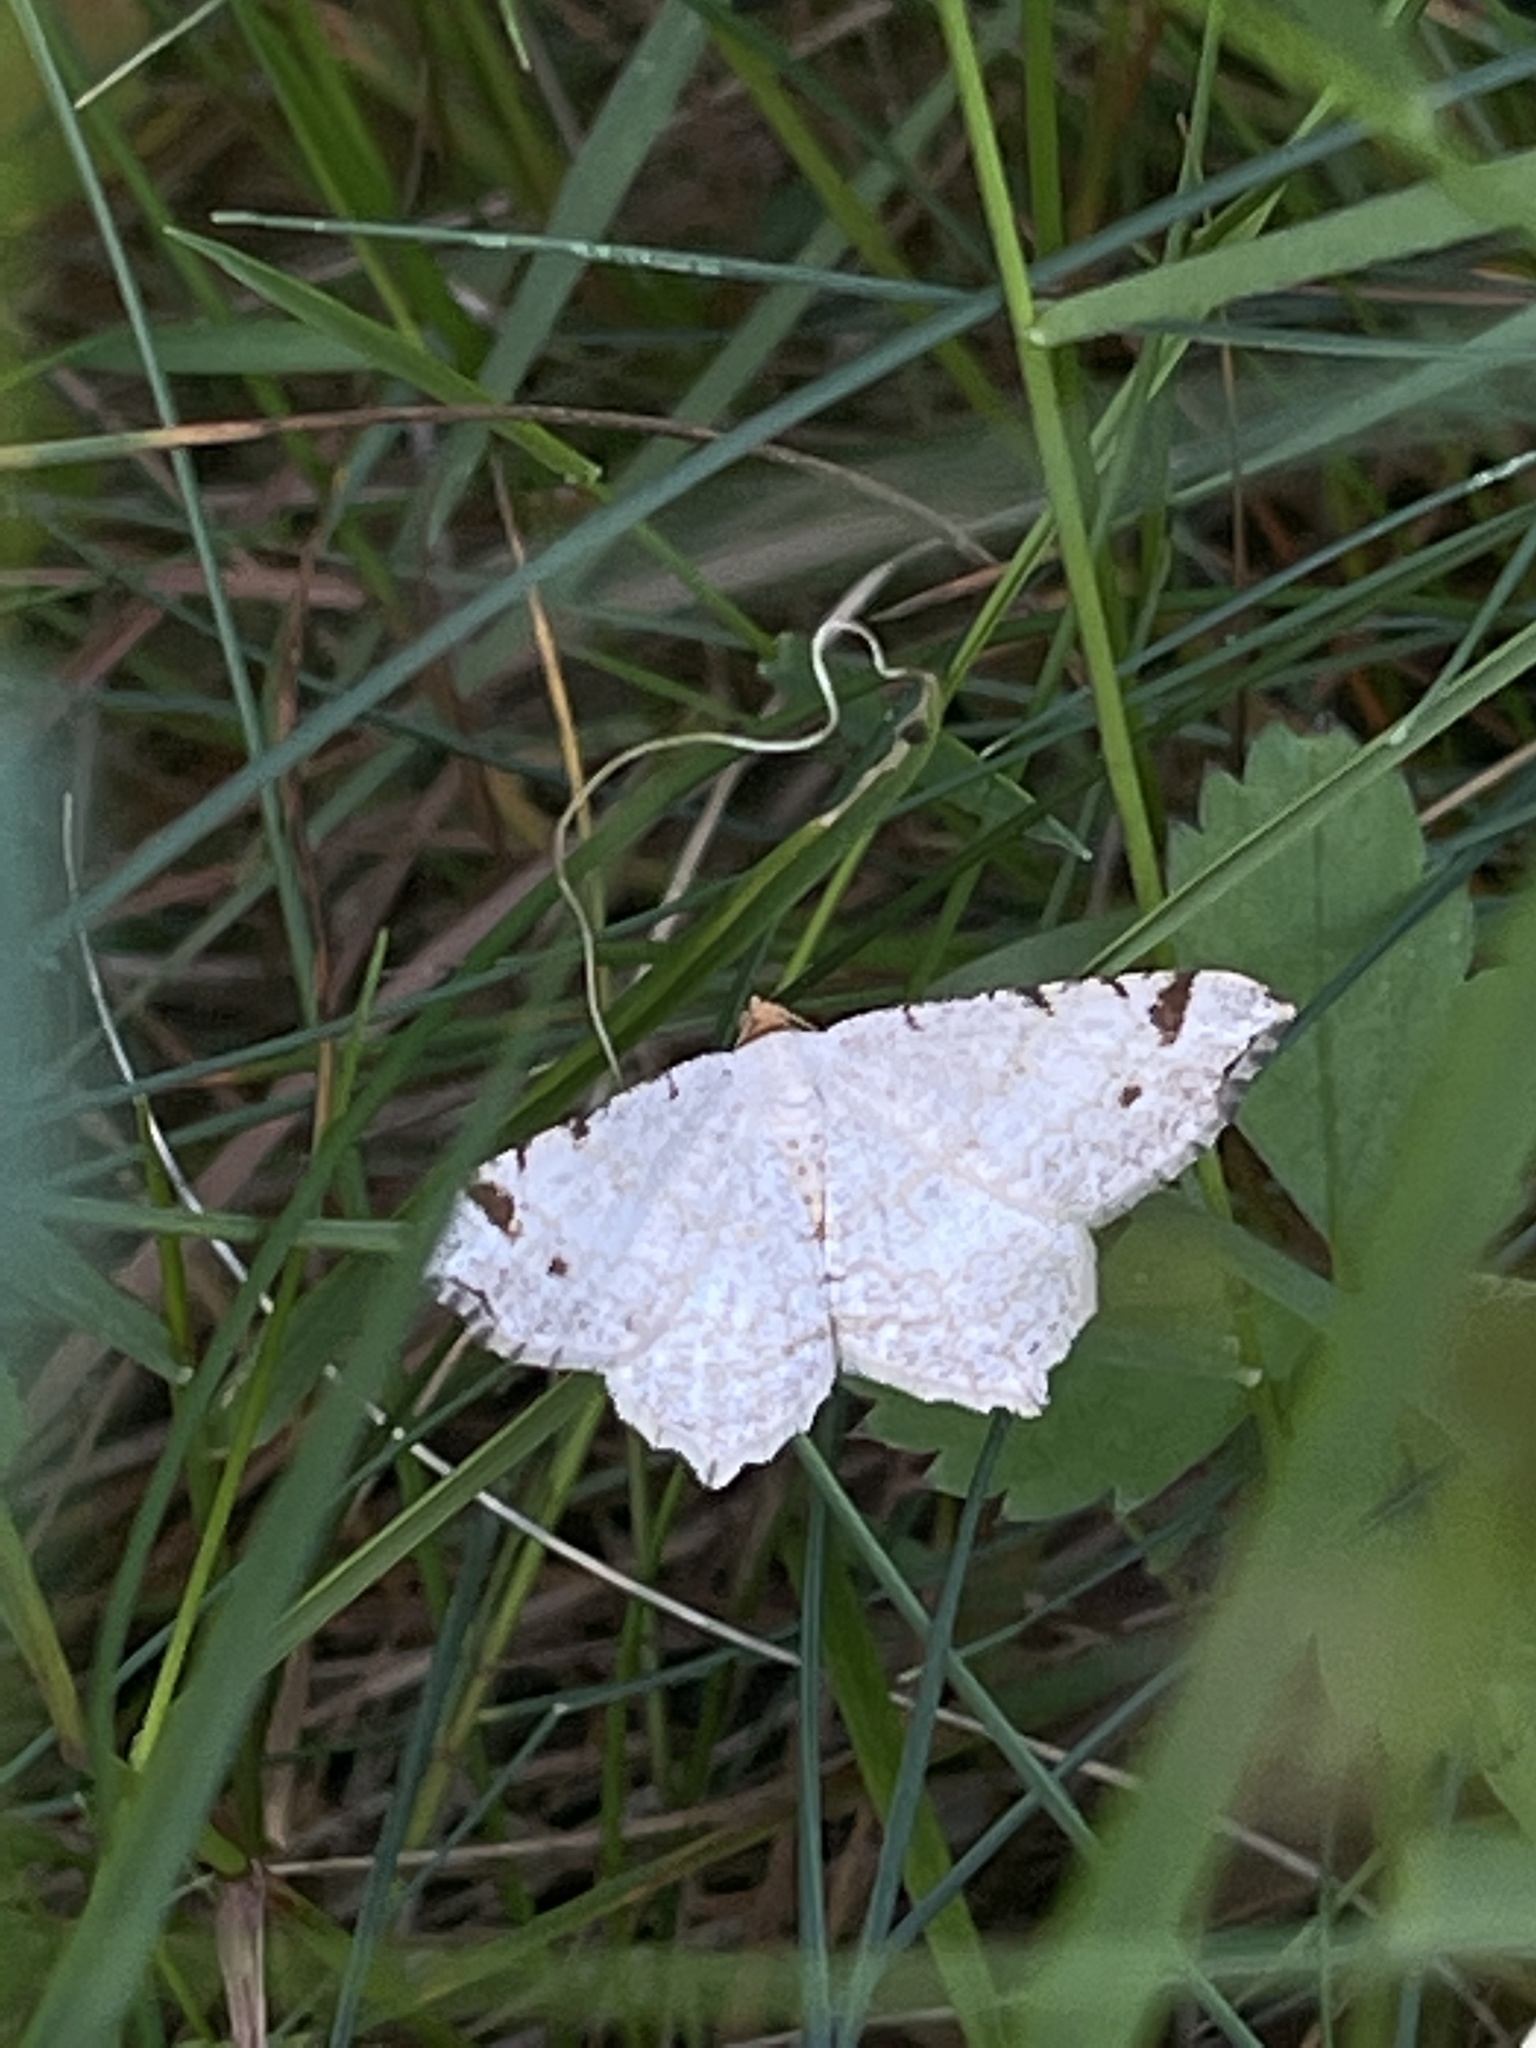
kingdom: Animalia
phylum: Arthropoda
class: Insecta
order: Lepidoptera
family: Geometridae
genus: Macaria
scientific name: Macaria bisignata
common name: Red-headed inchworm
